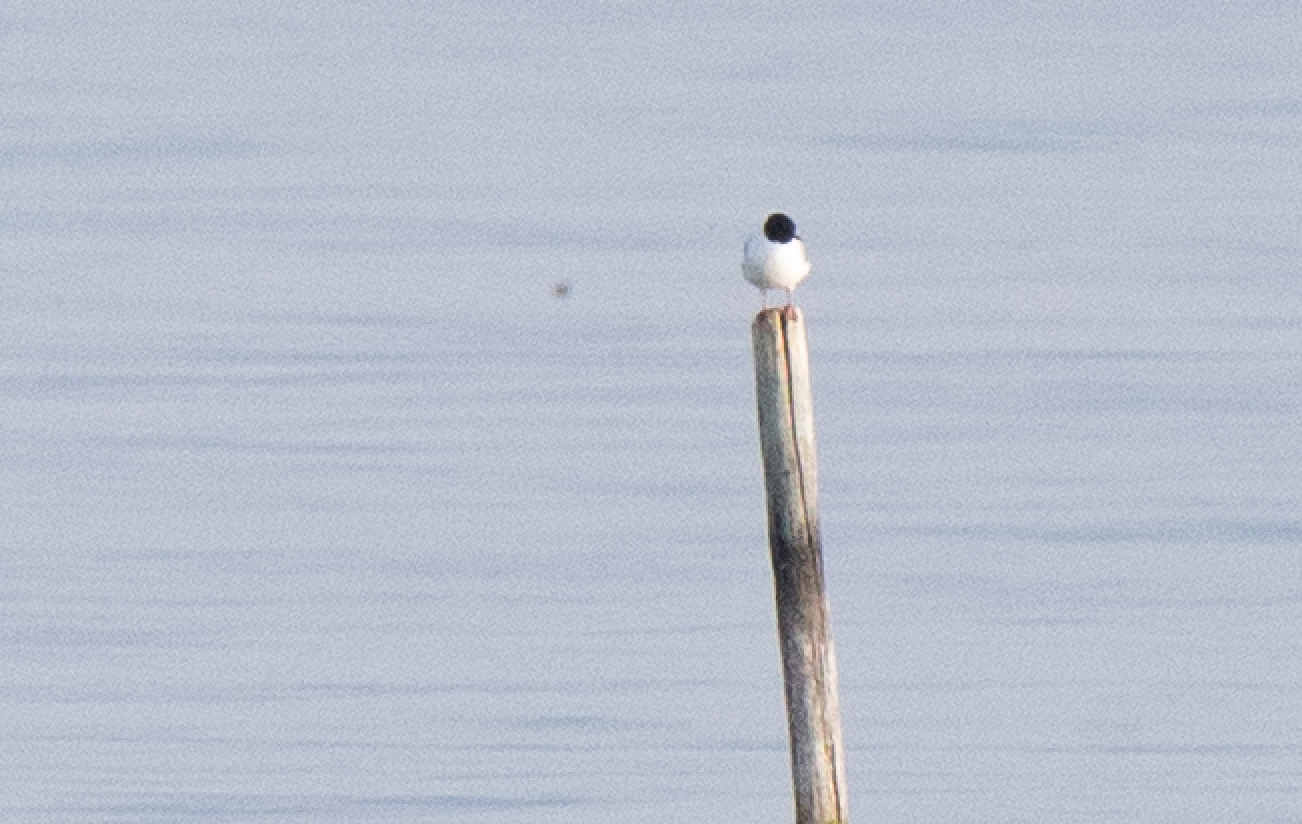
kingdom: Animalia
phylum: Chordata
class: Aves
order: Charadriiformes
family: Laridae
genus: Hydrocoloeus
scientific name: Hydrocoloeus minutus
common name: Little gull
